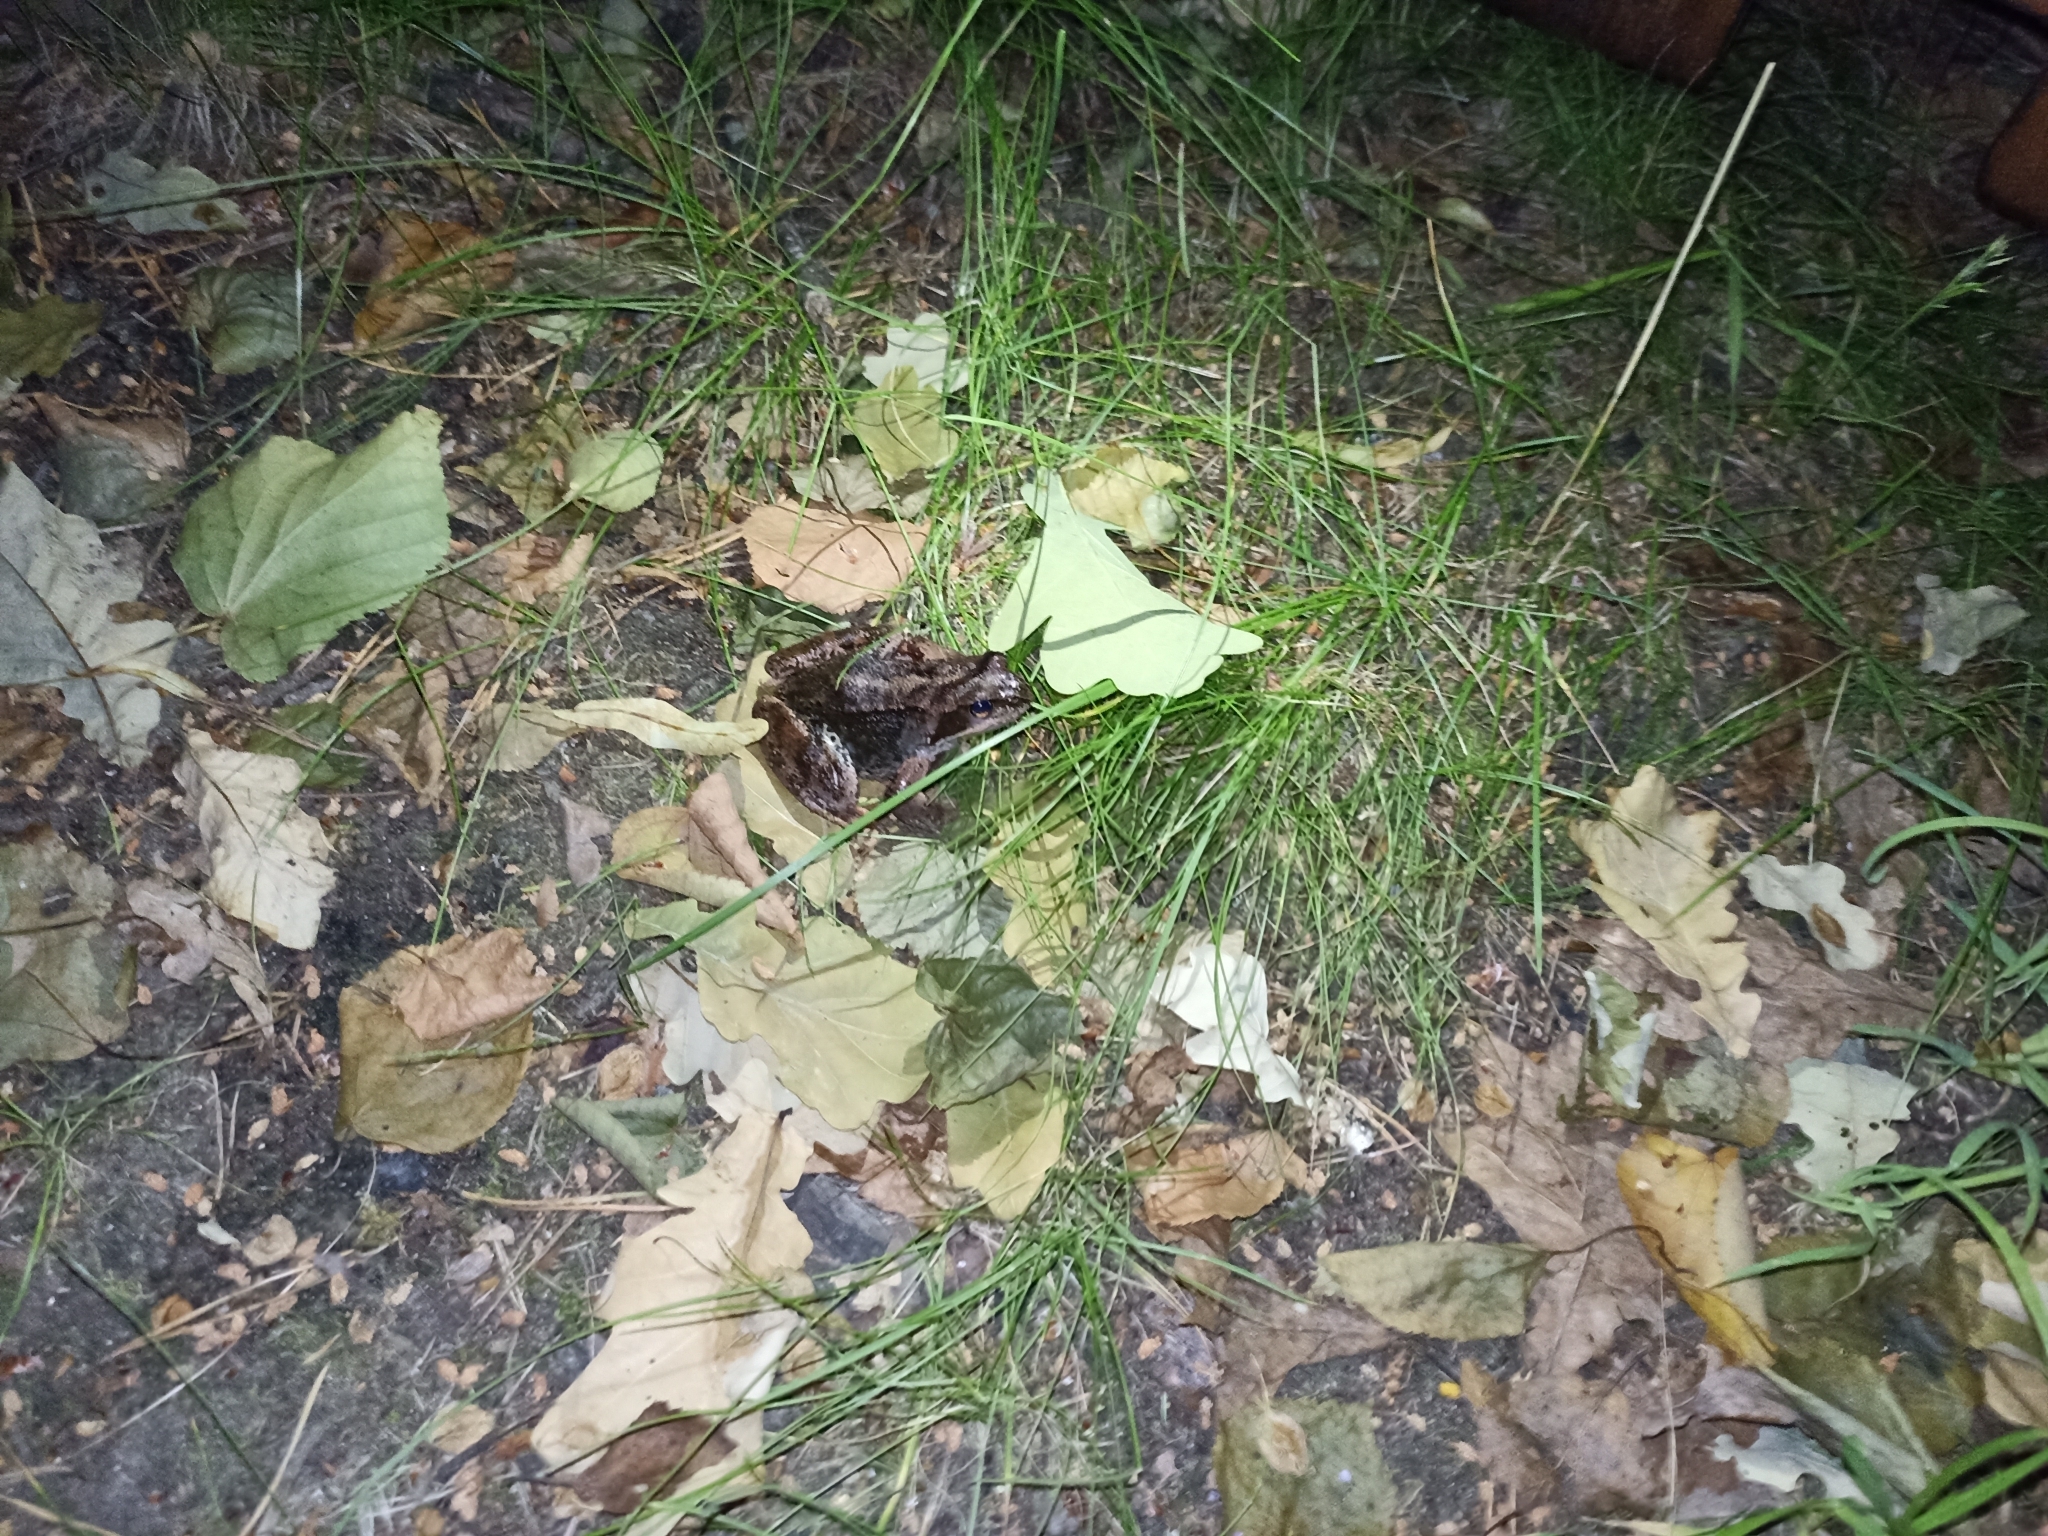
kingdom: Animalia
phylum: Chordata
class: Amphibia
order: Anura
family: Ranidae
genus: Rana
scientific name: Rana temporaria
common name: Common frog
